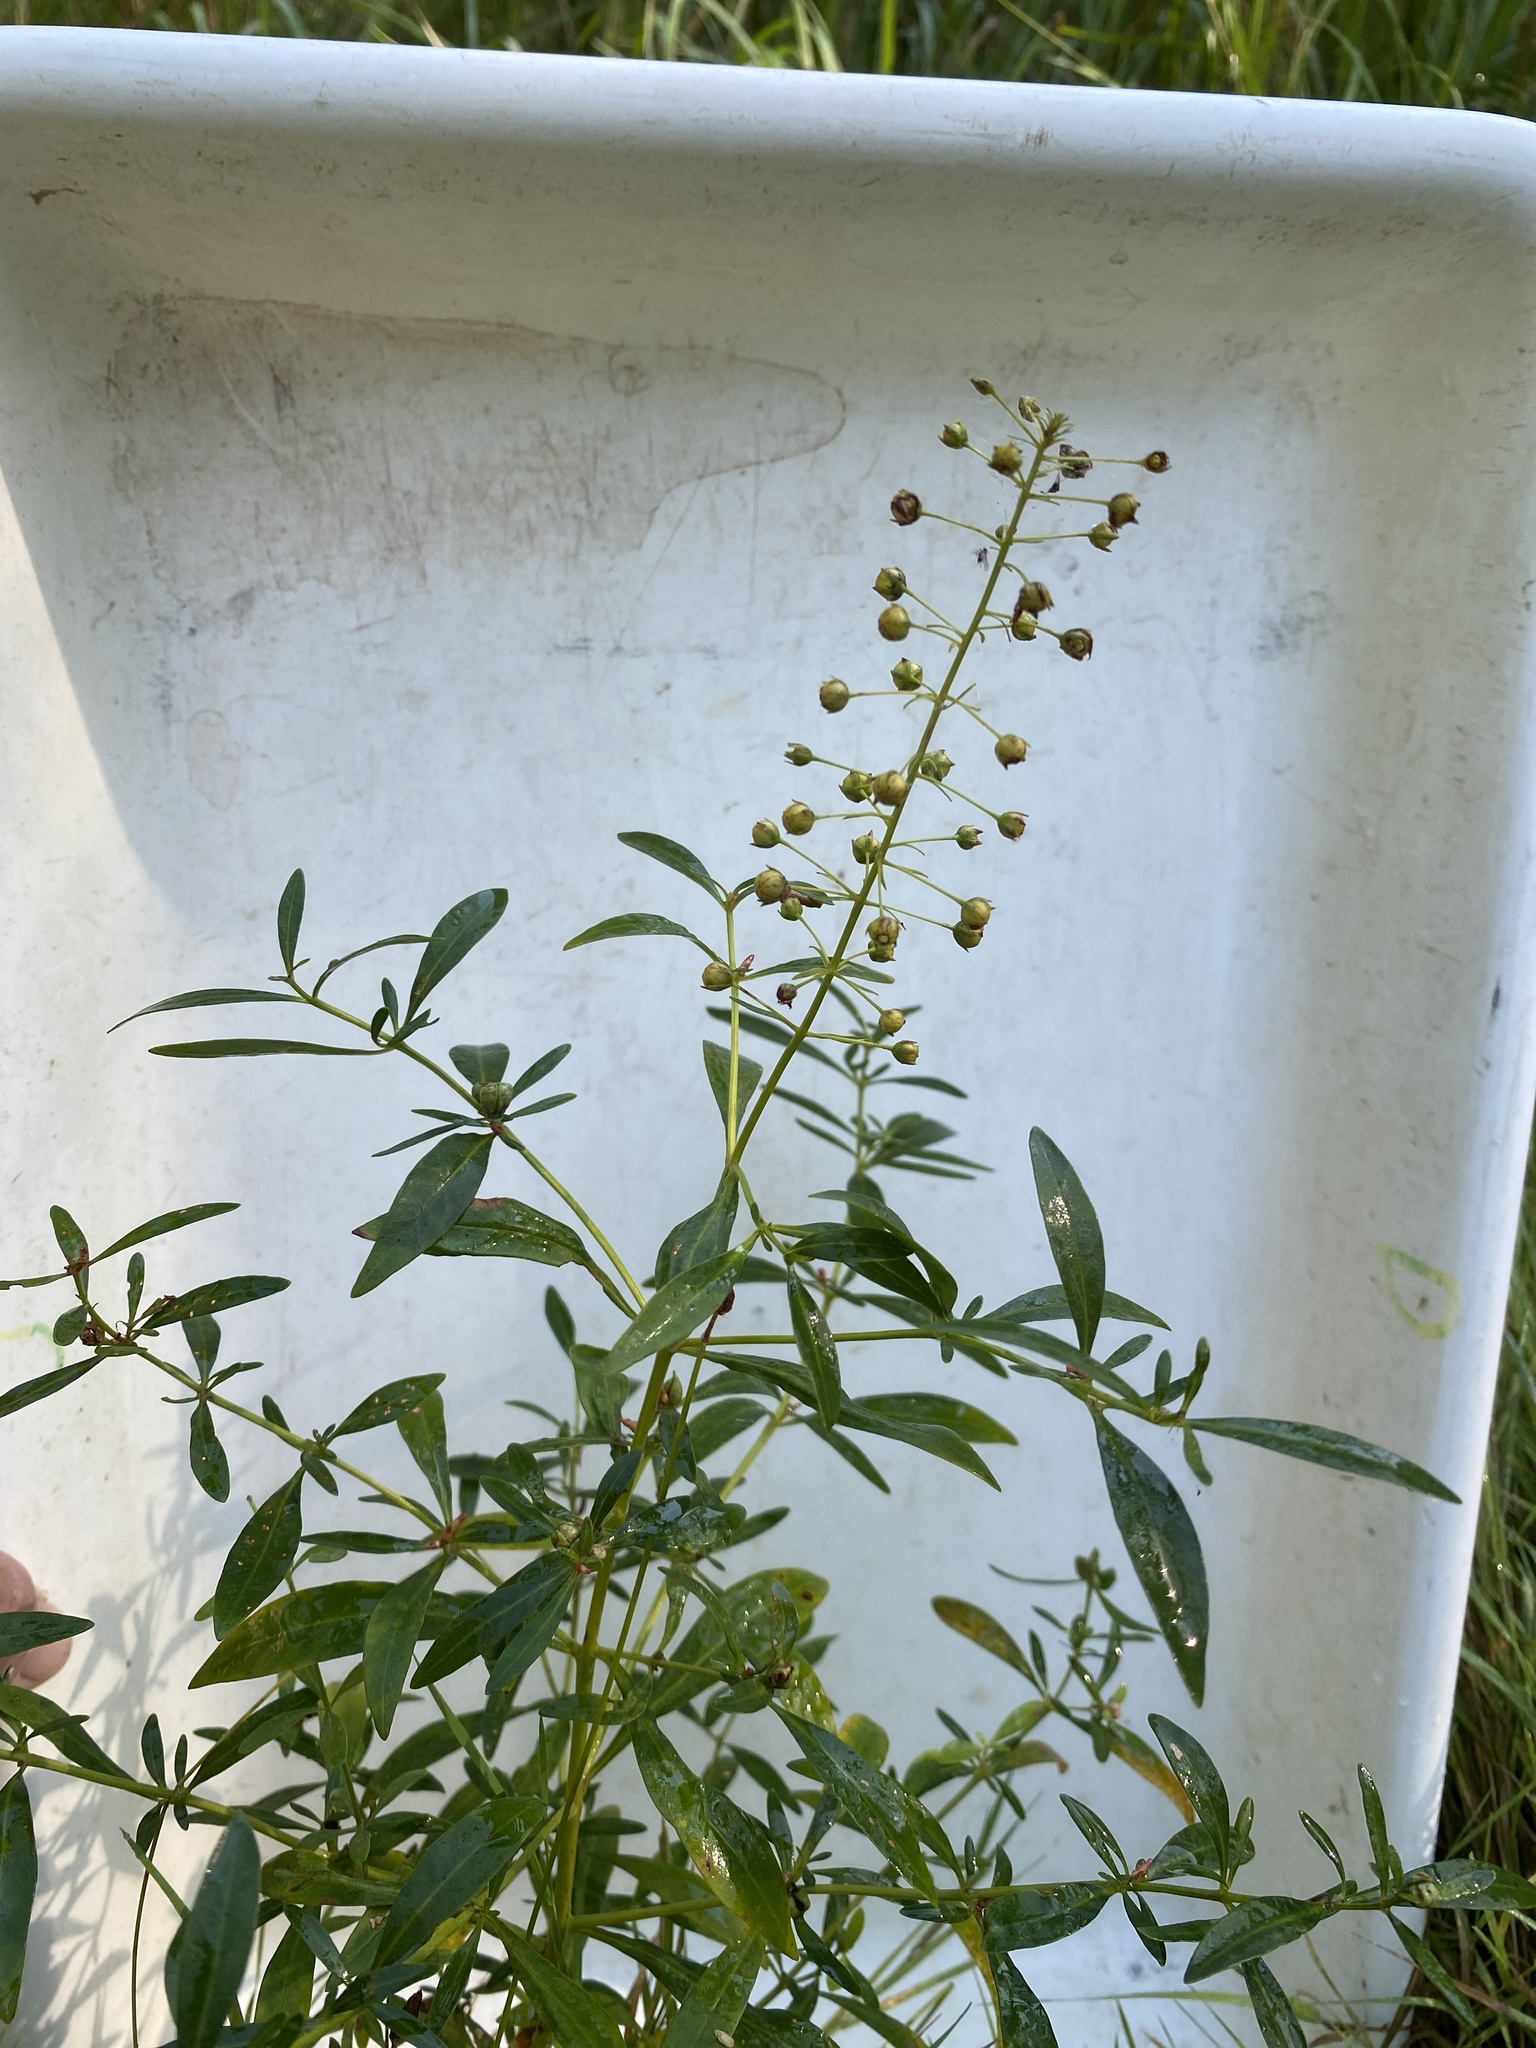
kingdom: Plantae
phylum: Tracheophyta
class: Magnoliopsida
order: Ericales
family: Primulaceae
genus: Lysimachia
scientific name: Lysimachia terrestris
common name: Lake loosestrife
